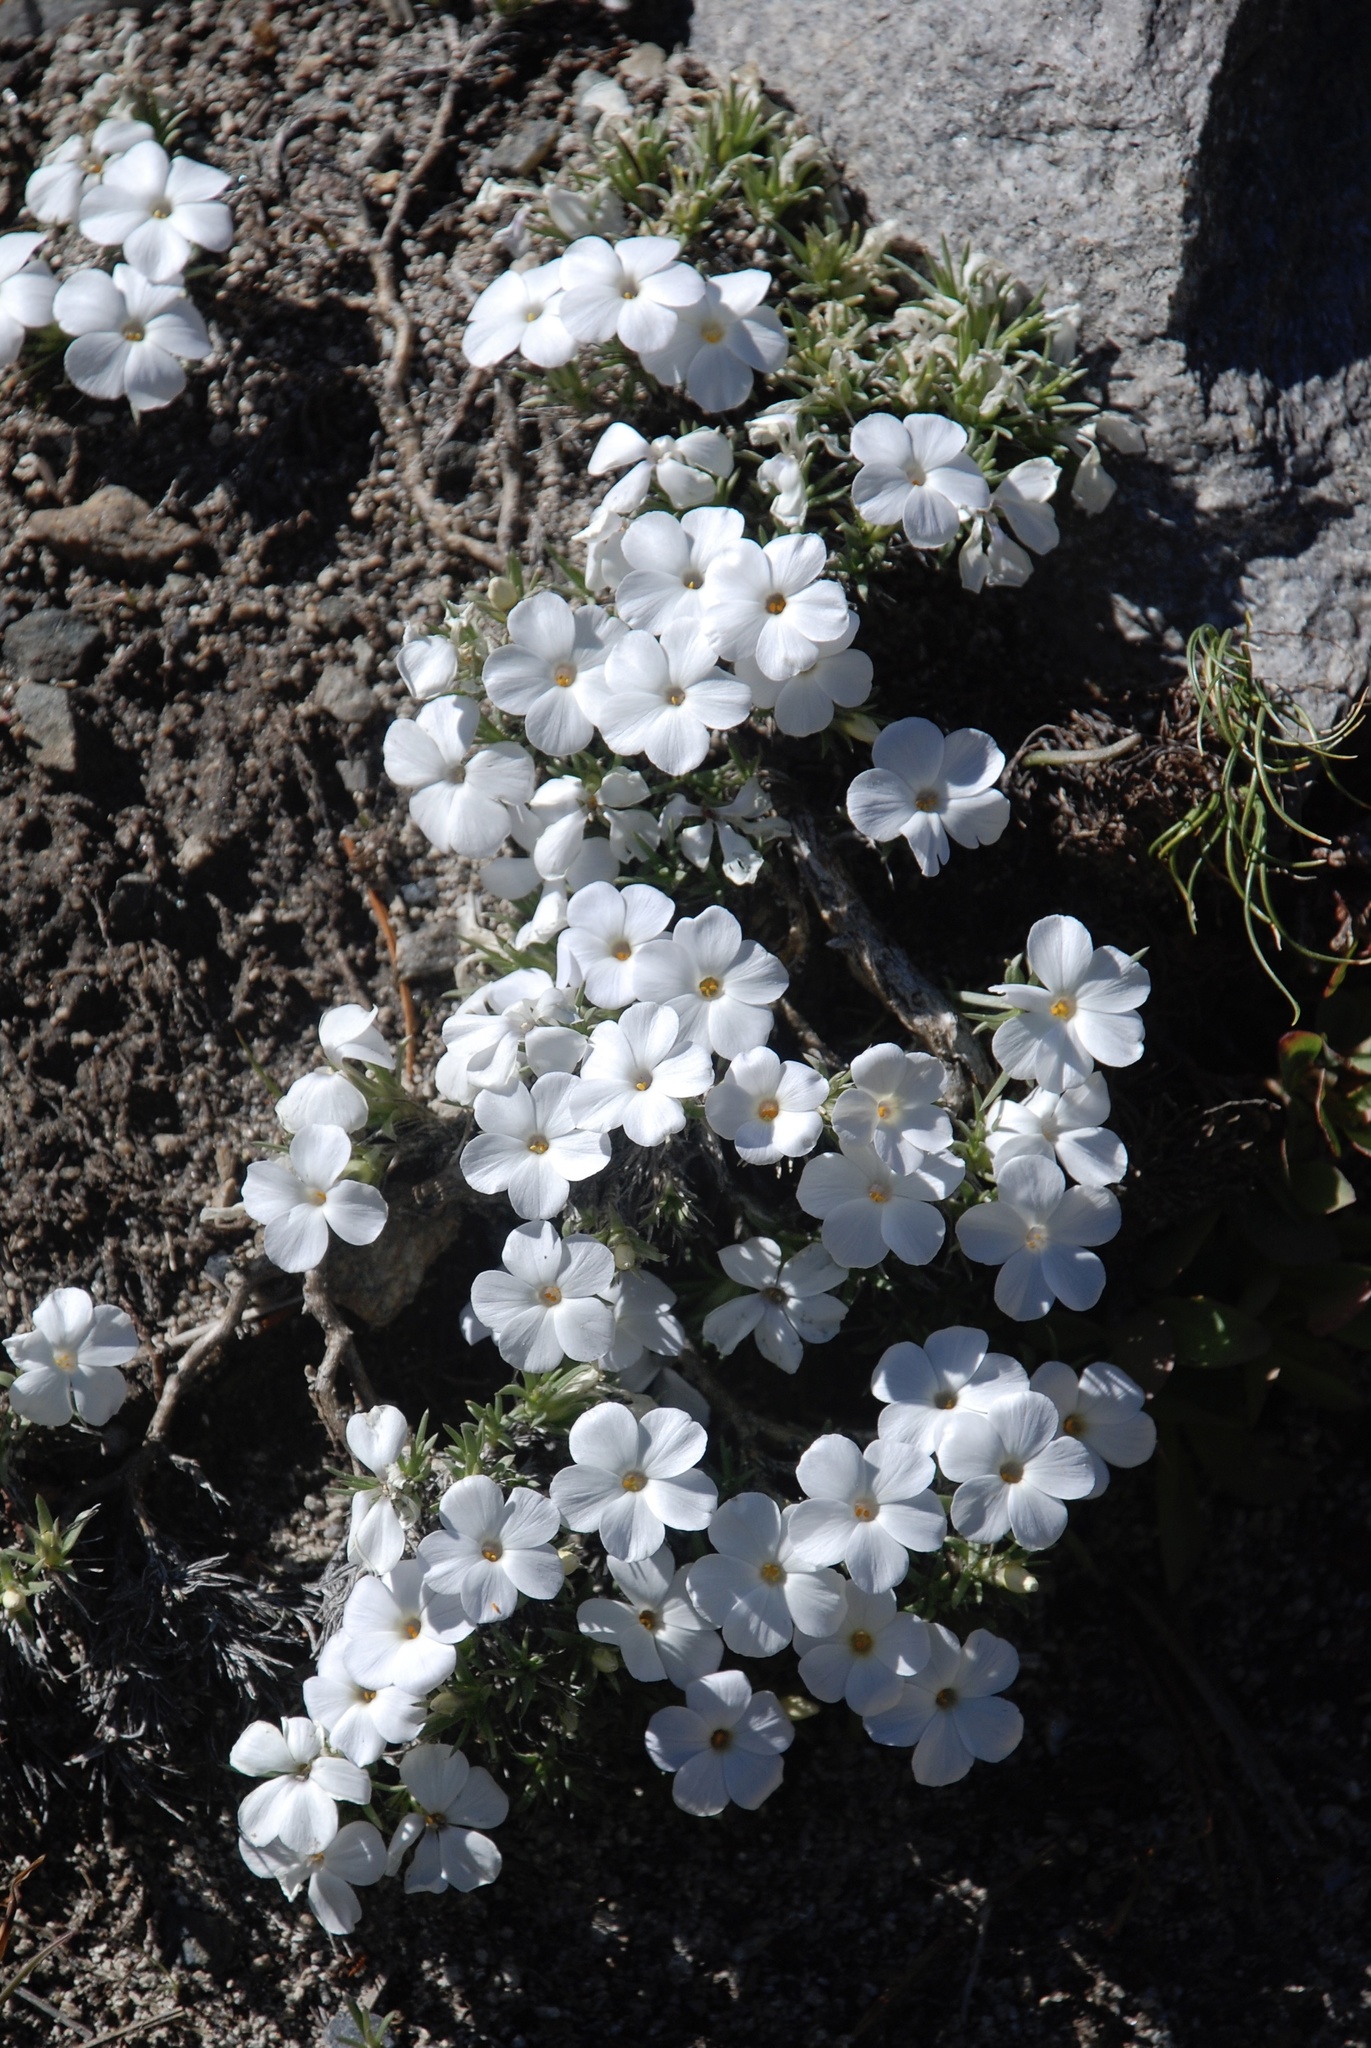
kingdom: Plantae
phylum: Tracheophyta
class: Magnoliopsida
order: Ericales
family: Polemoniaceae
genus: Phlox
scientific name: Phlox condensata
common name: Compact phlox
